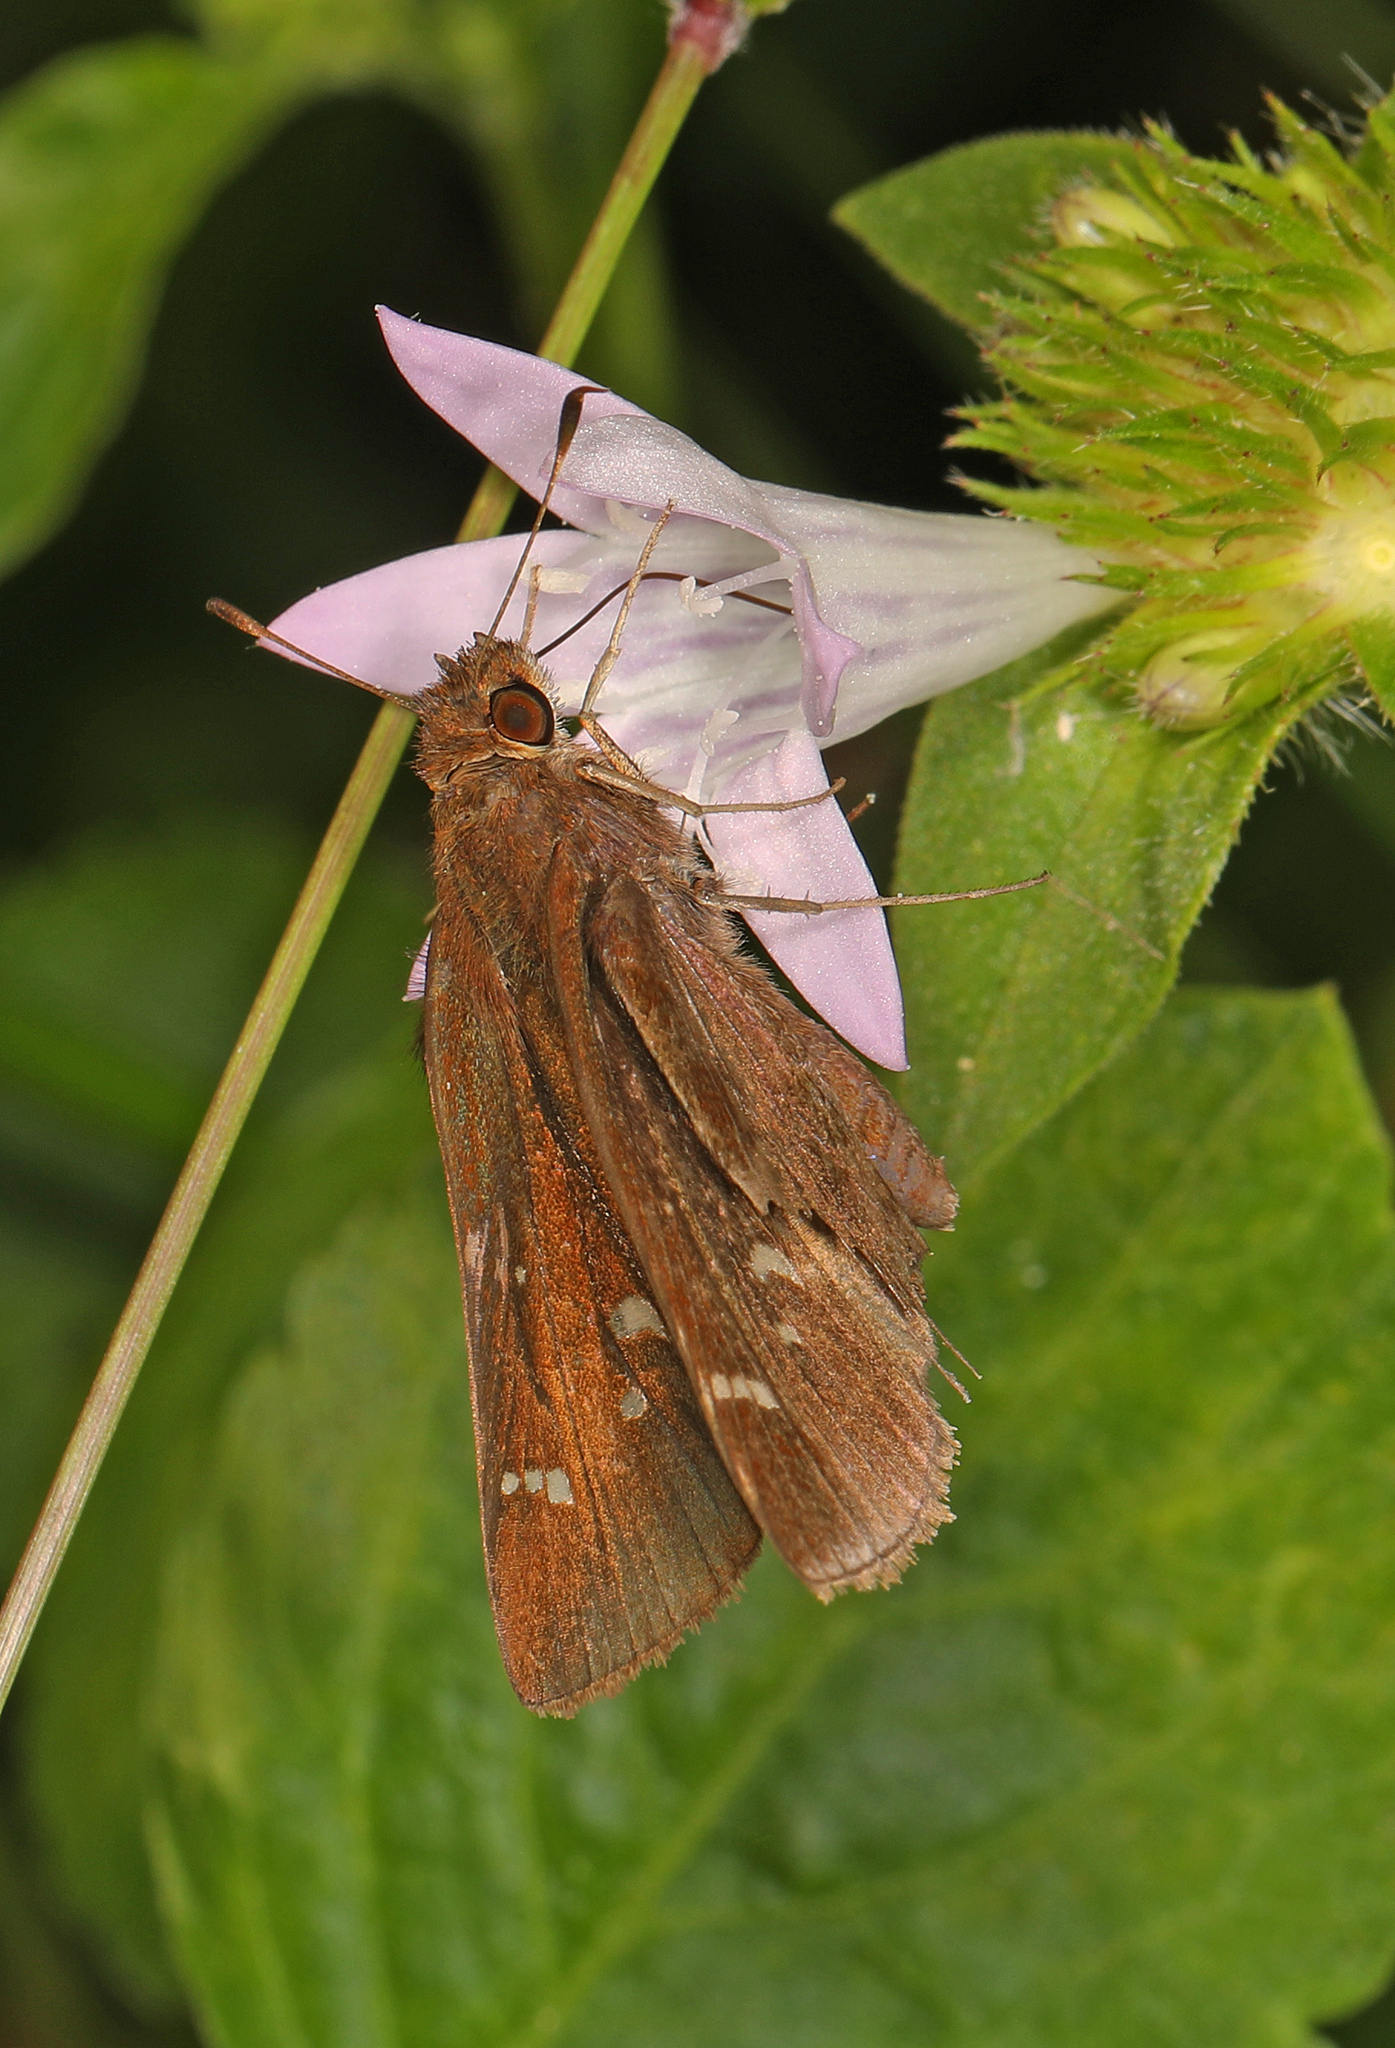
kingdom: Animalia
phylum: Arthropoda
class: Insecta
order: Lepidoptera
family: Hesperiidae
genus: Lerema
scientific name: Lerema accius
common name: Clouded skipper
